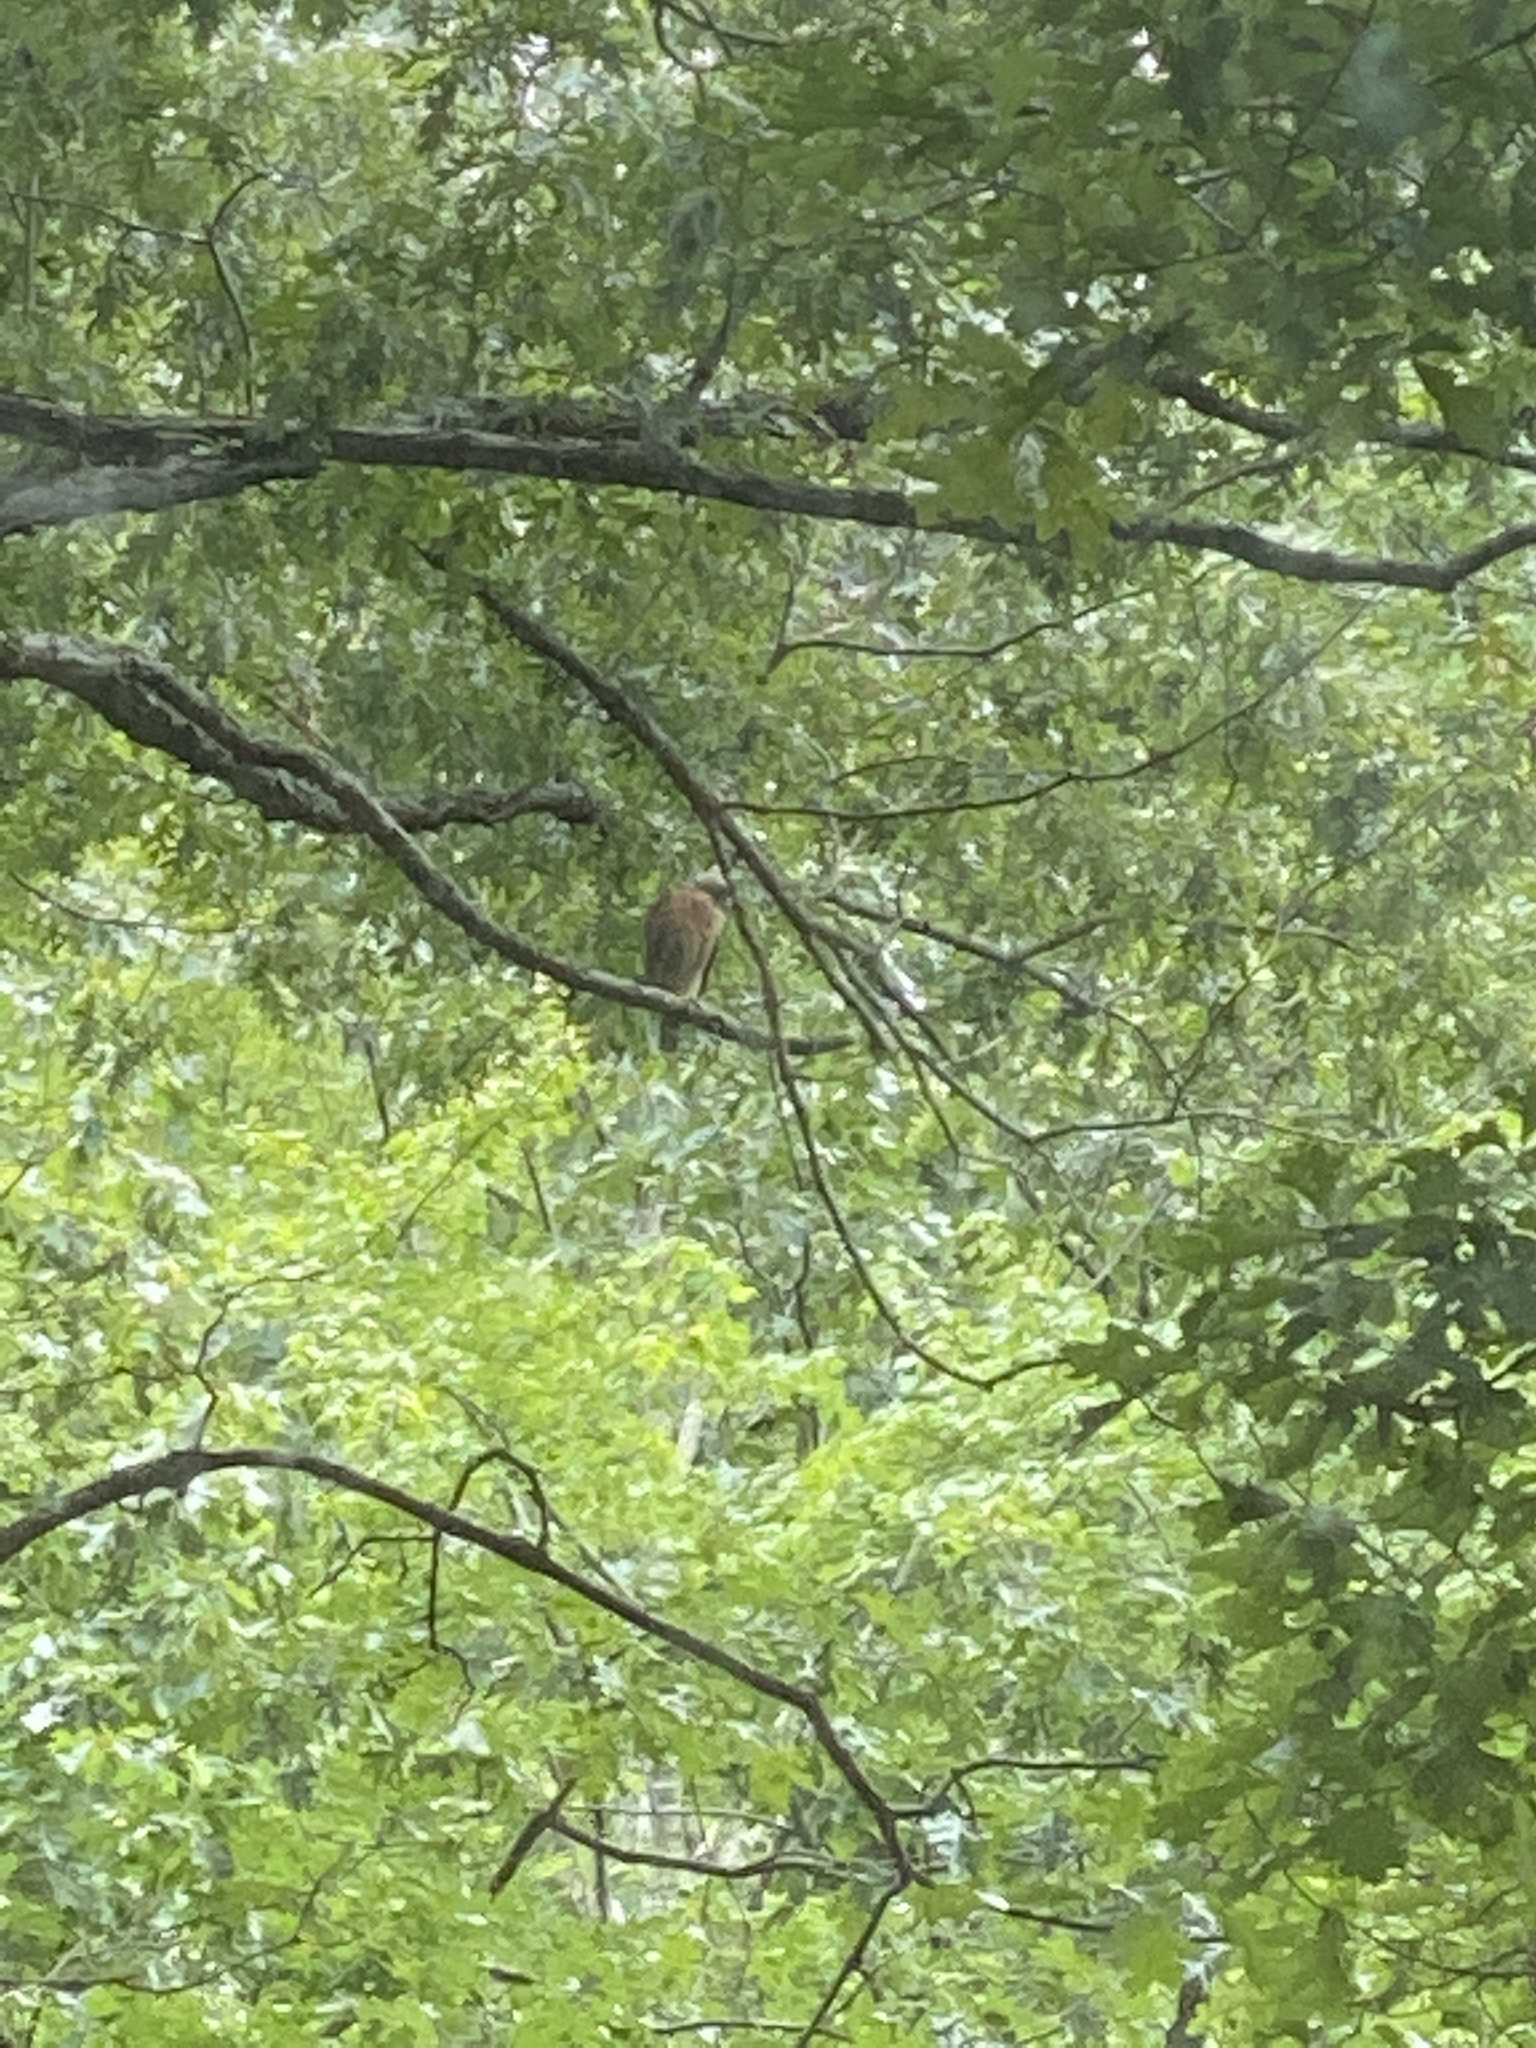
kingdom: Animalia
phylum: Chordata
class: Aves
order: Accipitriformes
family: Accipitridae
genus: Buteo
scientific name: Buteo lineatus
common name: Red-shouldered hawk
